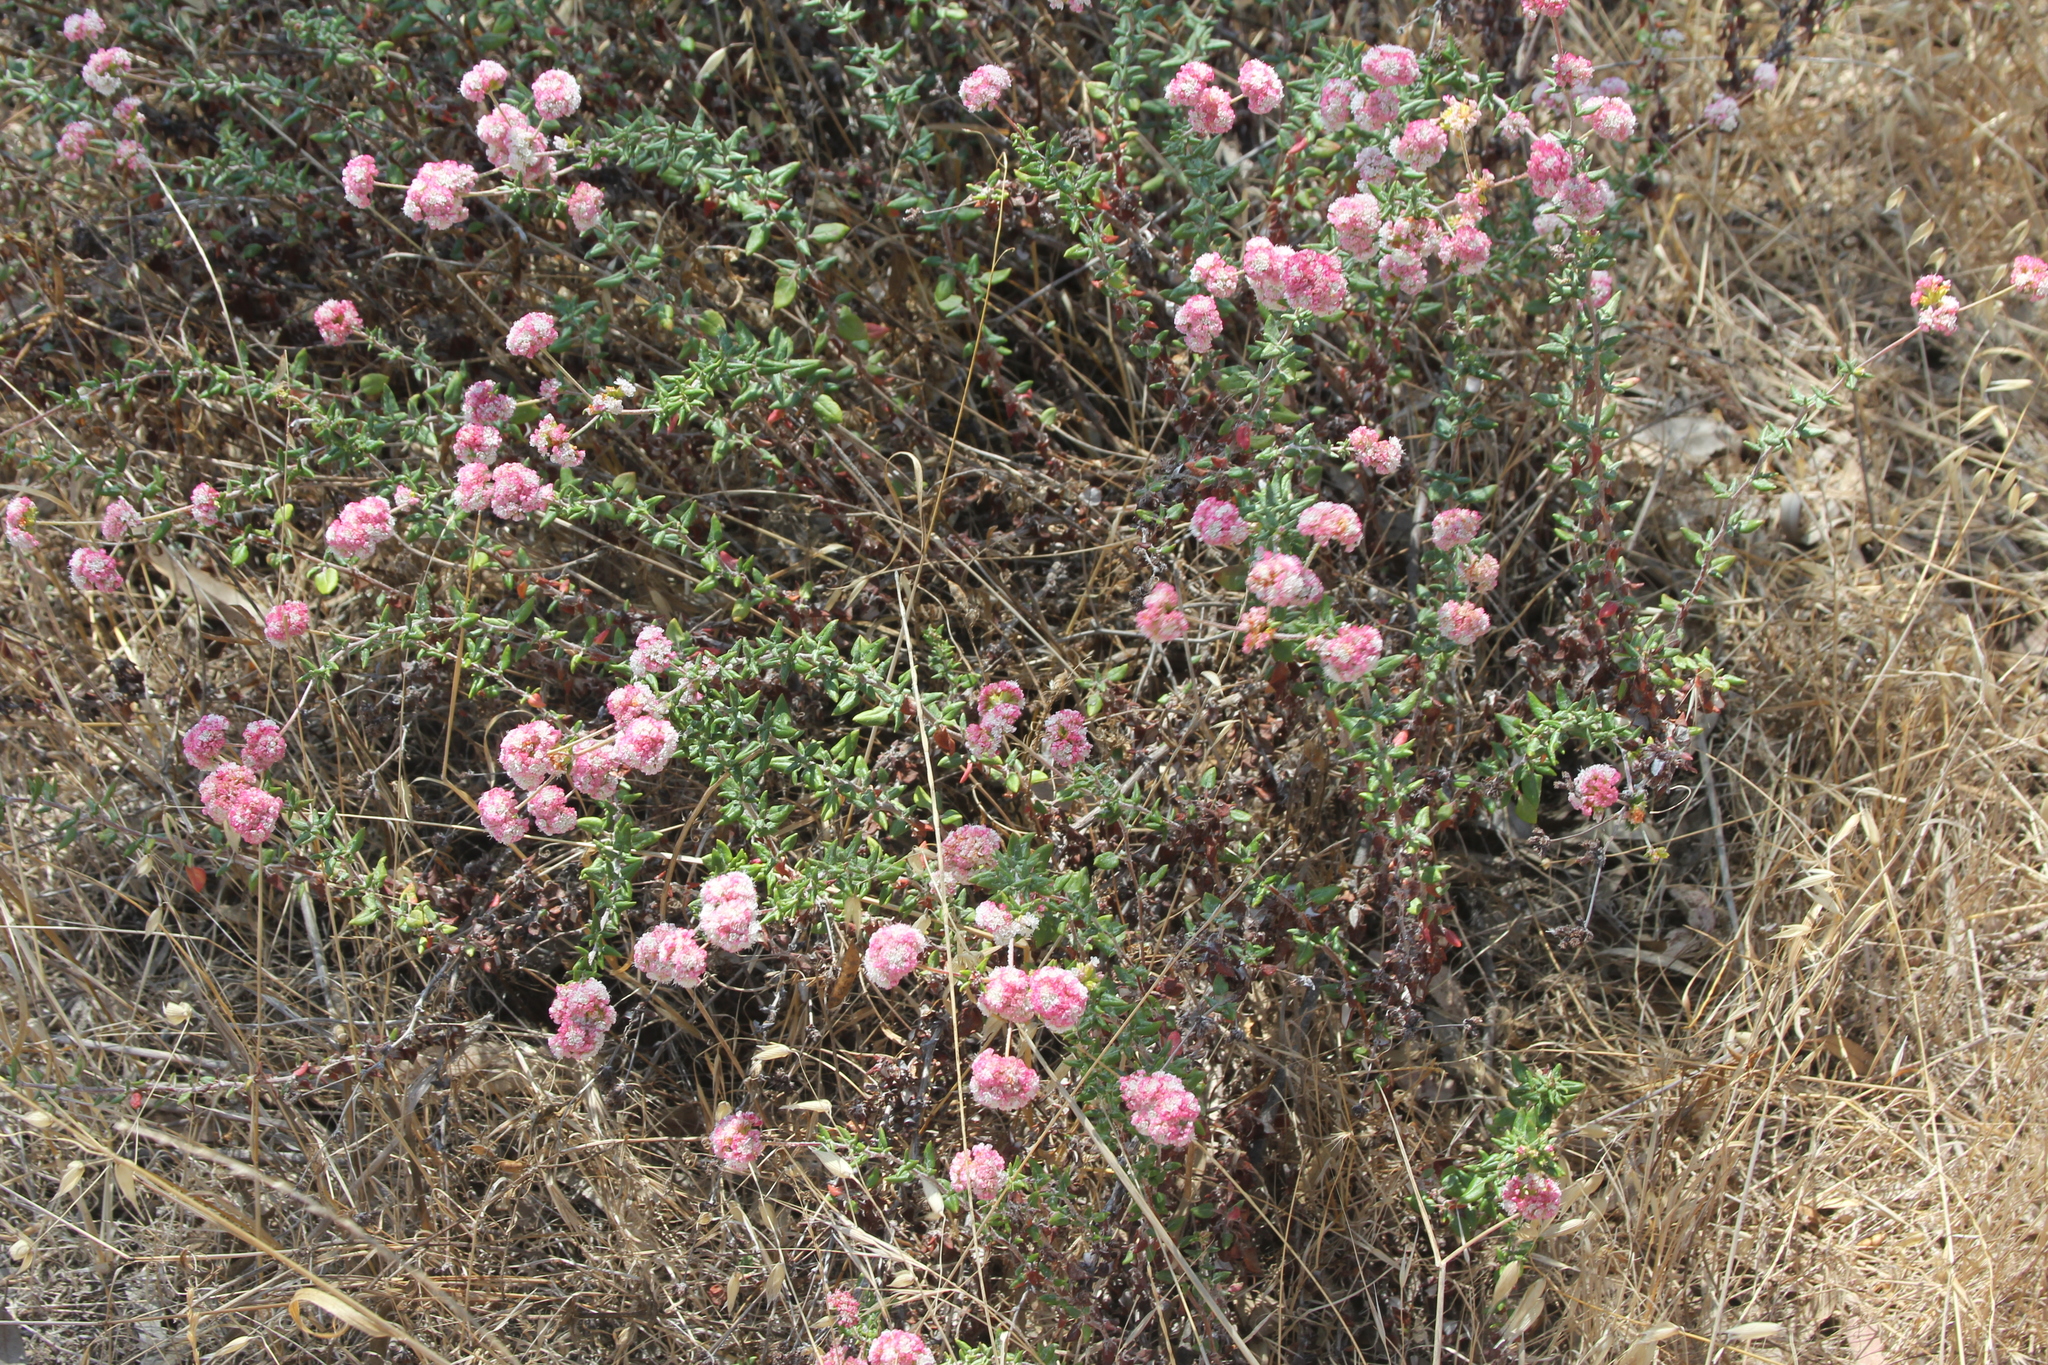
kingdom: Plantae
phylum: Tracheophyta
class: Magnoliopsida
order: Caryophyllales
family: Polygonaceae
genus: Eriogonum
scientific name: Eriogonum parvifolium
